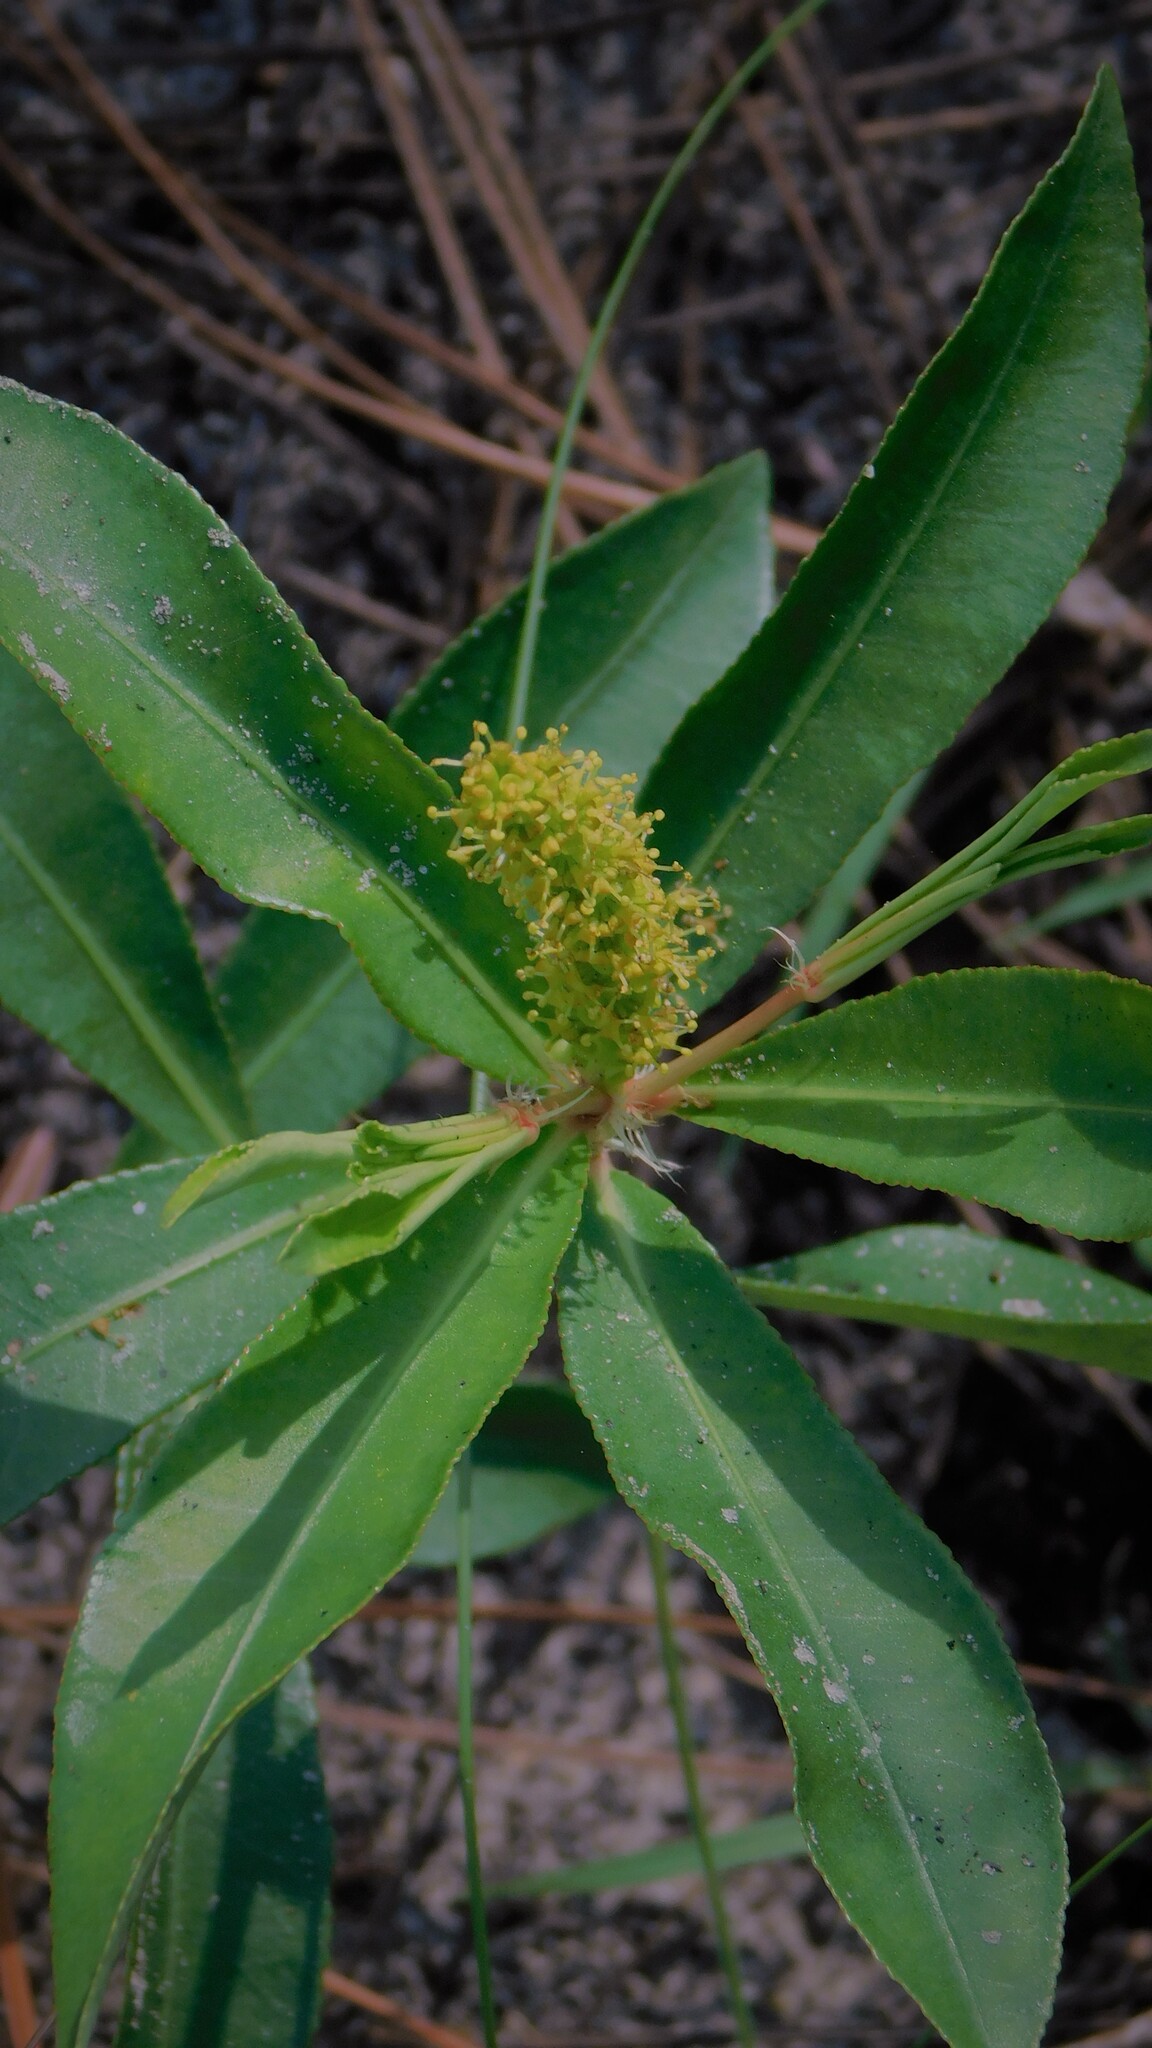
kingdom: Plantae
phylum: Tracheophyta
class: Magnoliopsida
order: Malpighiales
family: Euphorbiaceae
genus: Stillingia
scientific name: Stillingia sylvatica
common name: Queen's-delight
